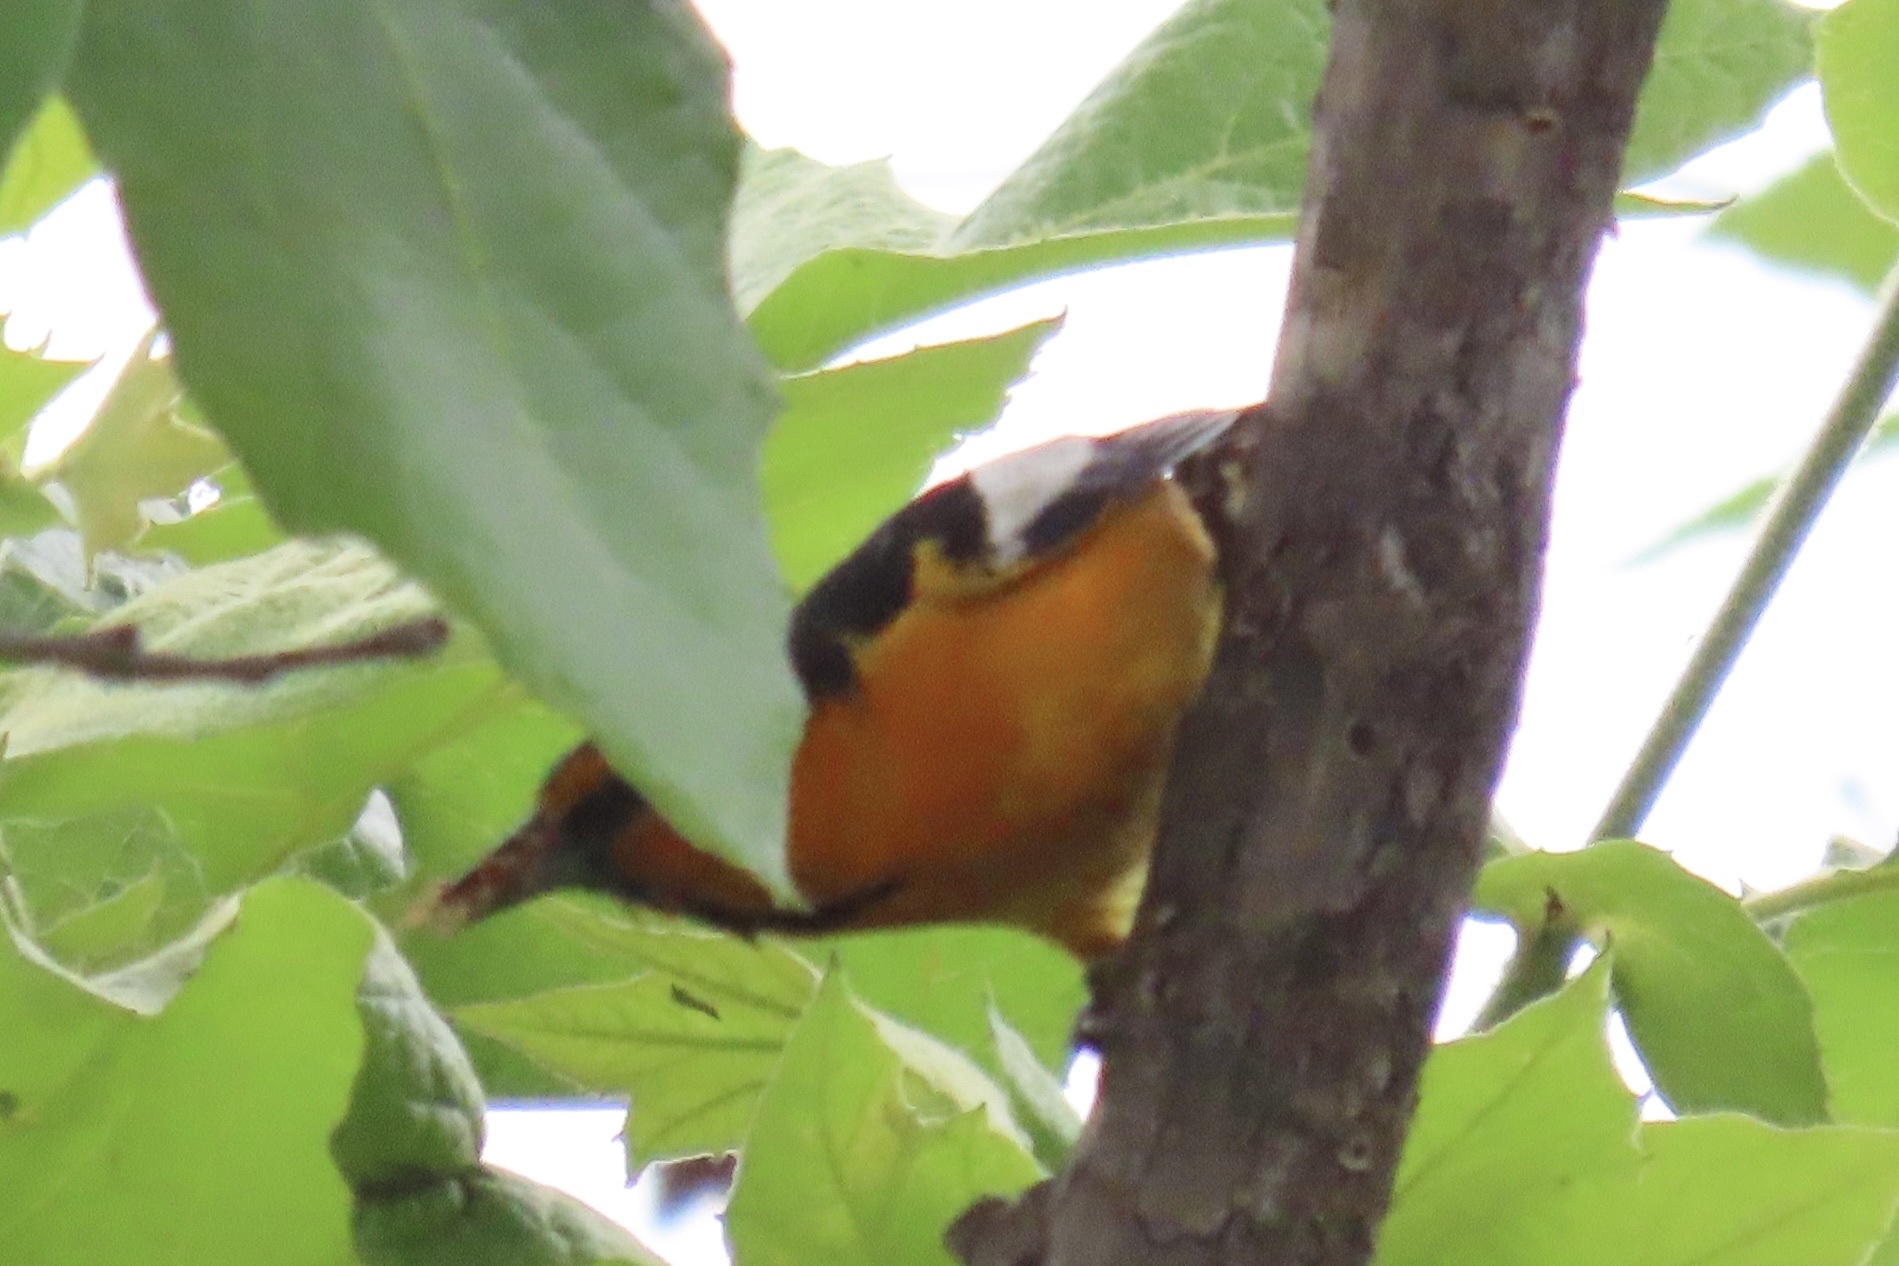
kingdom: Animalia
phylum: Chordata
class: Aves
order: Passeriformes
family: Icteridae
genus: Icterus
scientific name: Icterus bullockii
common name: Bullock's oriole
